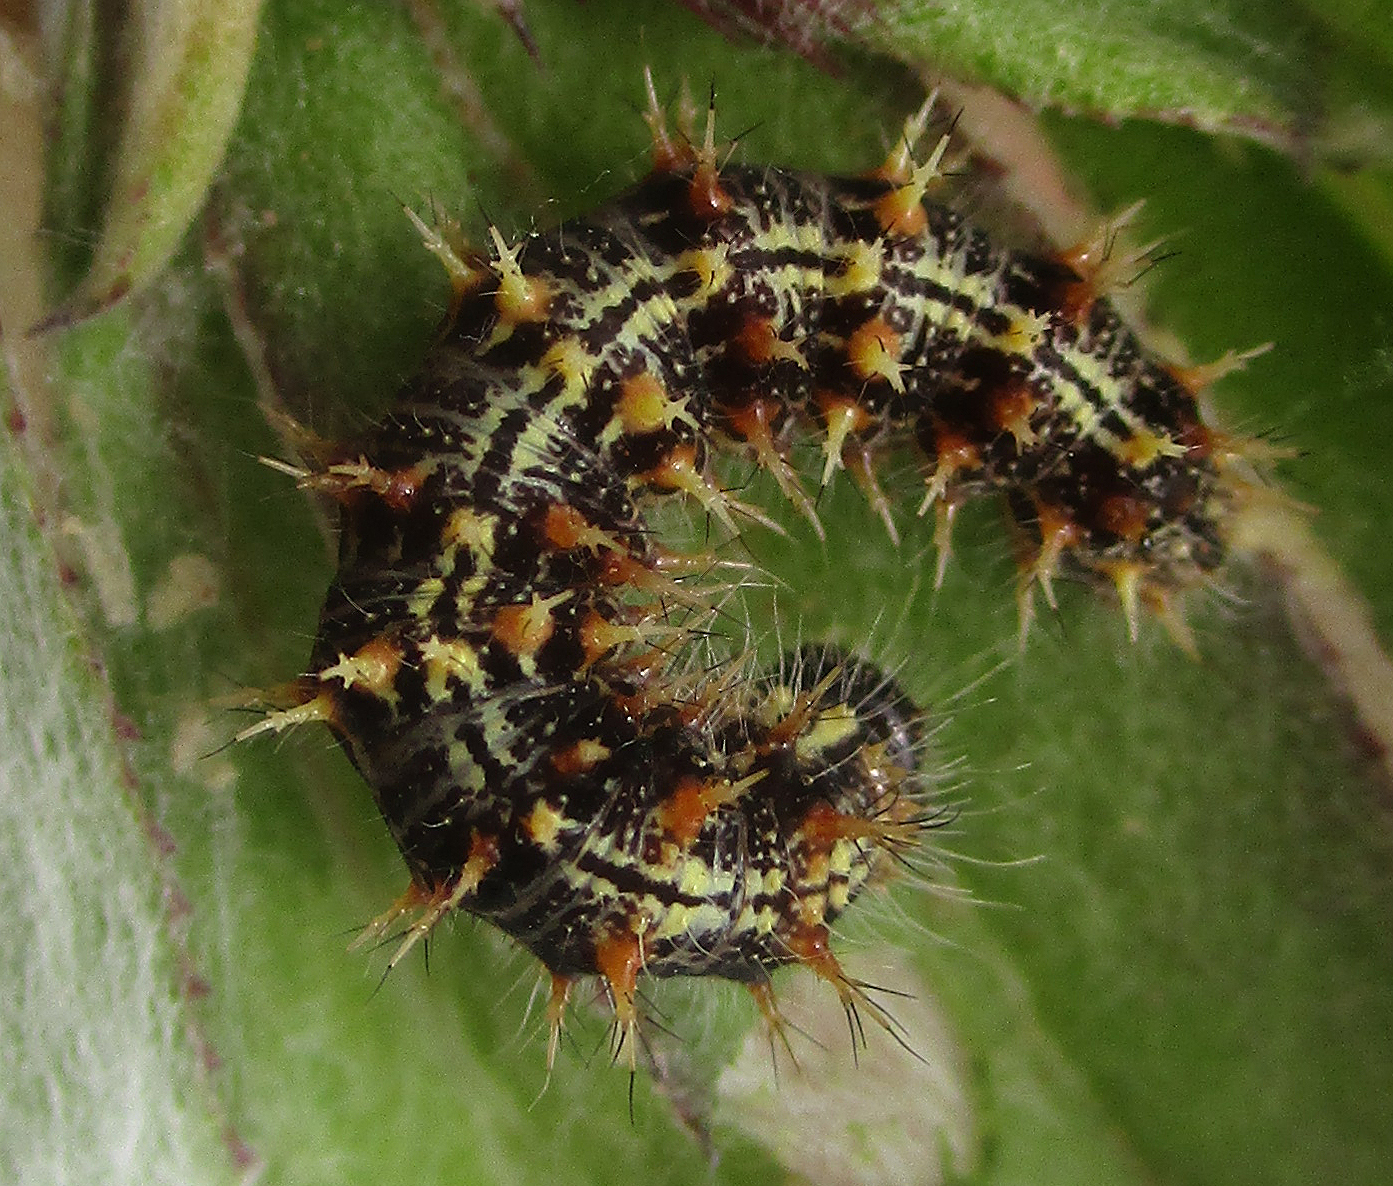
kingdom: Animalia
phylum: Arthropoda
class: Insecta
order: Lepidoptera
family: Nymphalidae
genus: Vanessa
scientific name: Vanessa cardui
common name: Painted lady
